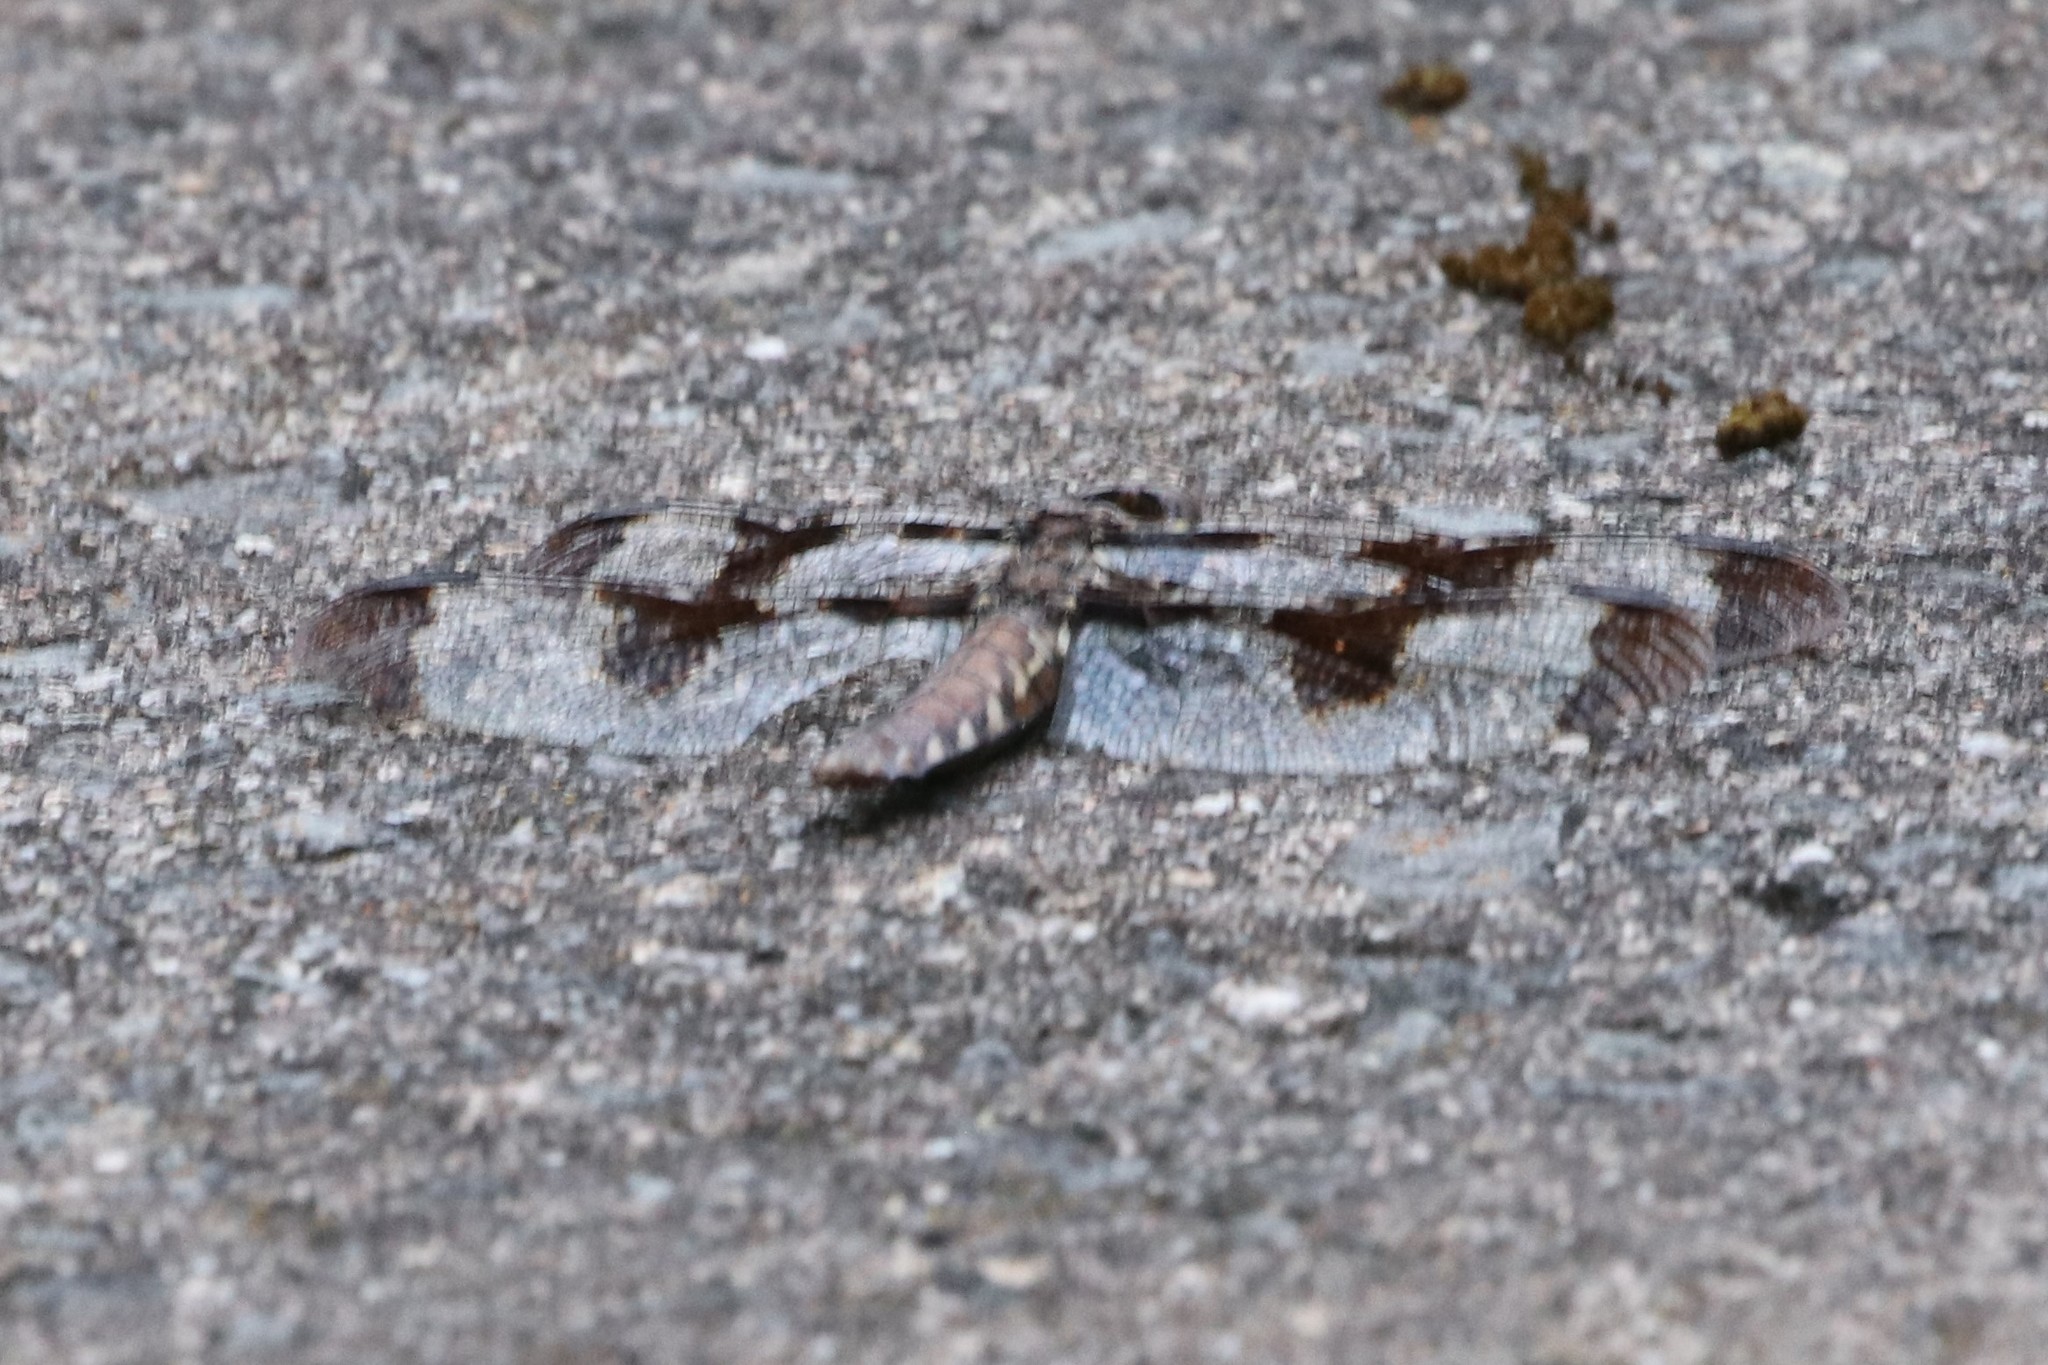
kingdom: Animalia
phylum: Arthropoda
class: Insecta
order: Odonata
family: Libellulidae
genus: Plathemis
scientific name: Plathemis lydia
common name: Common whitetail
